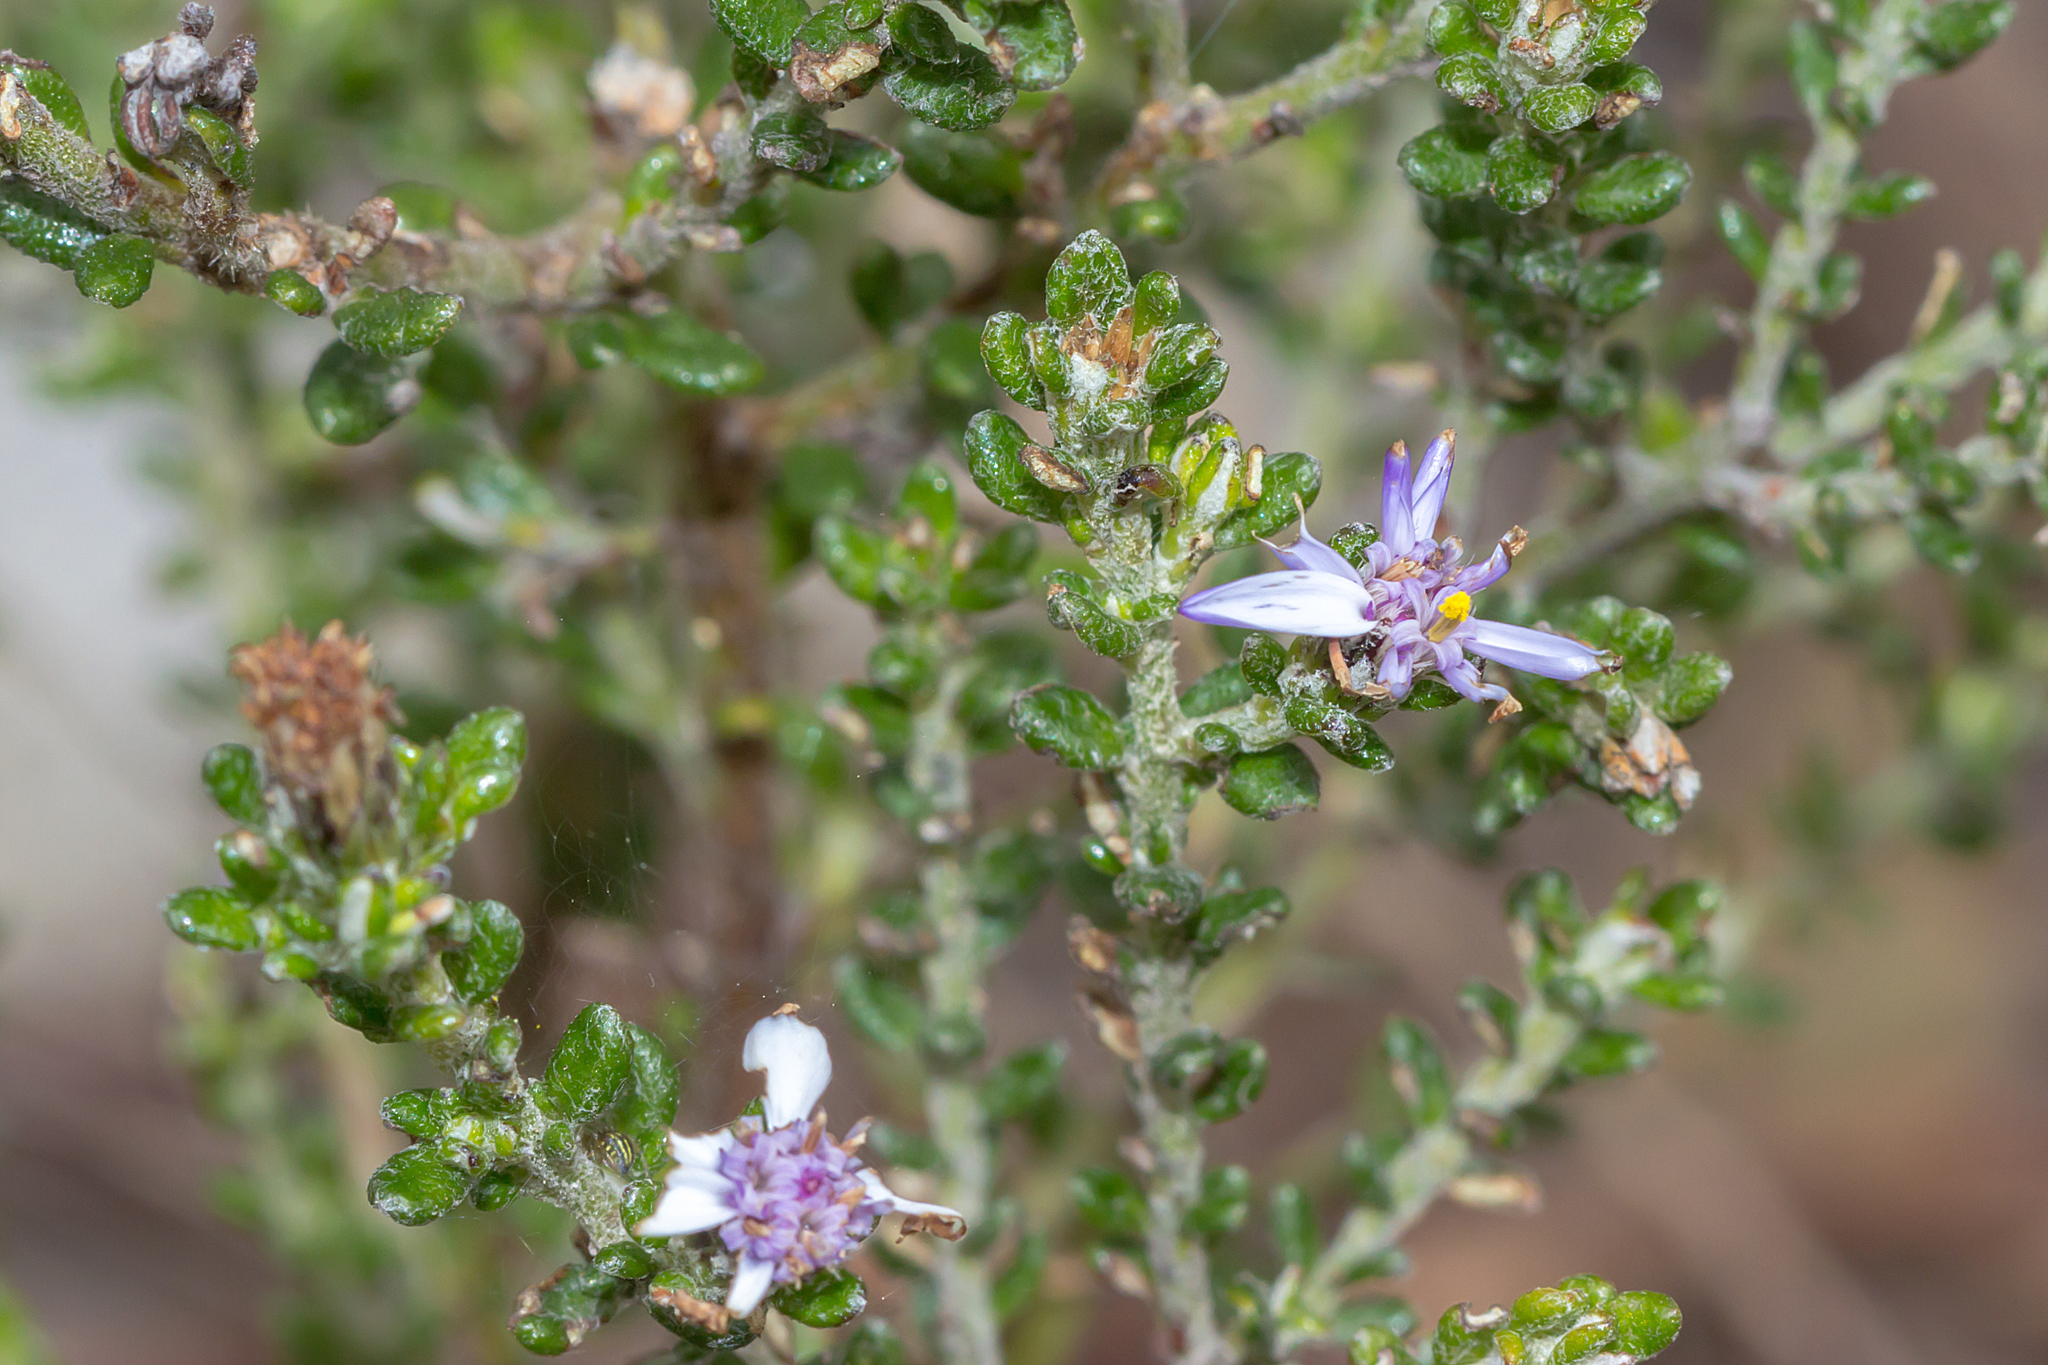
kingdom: Plantae
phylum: Tracheophyta
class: Magnoliopsida
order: Asterales
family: Asteraceae
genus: Olearia
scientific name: Olearia minor
